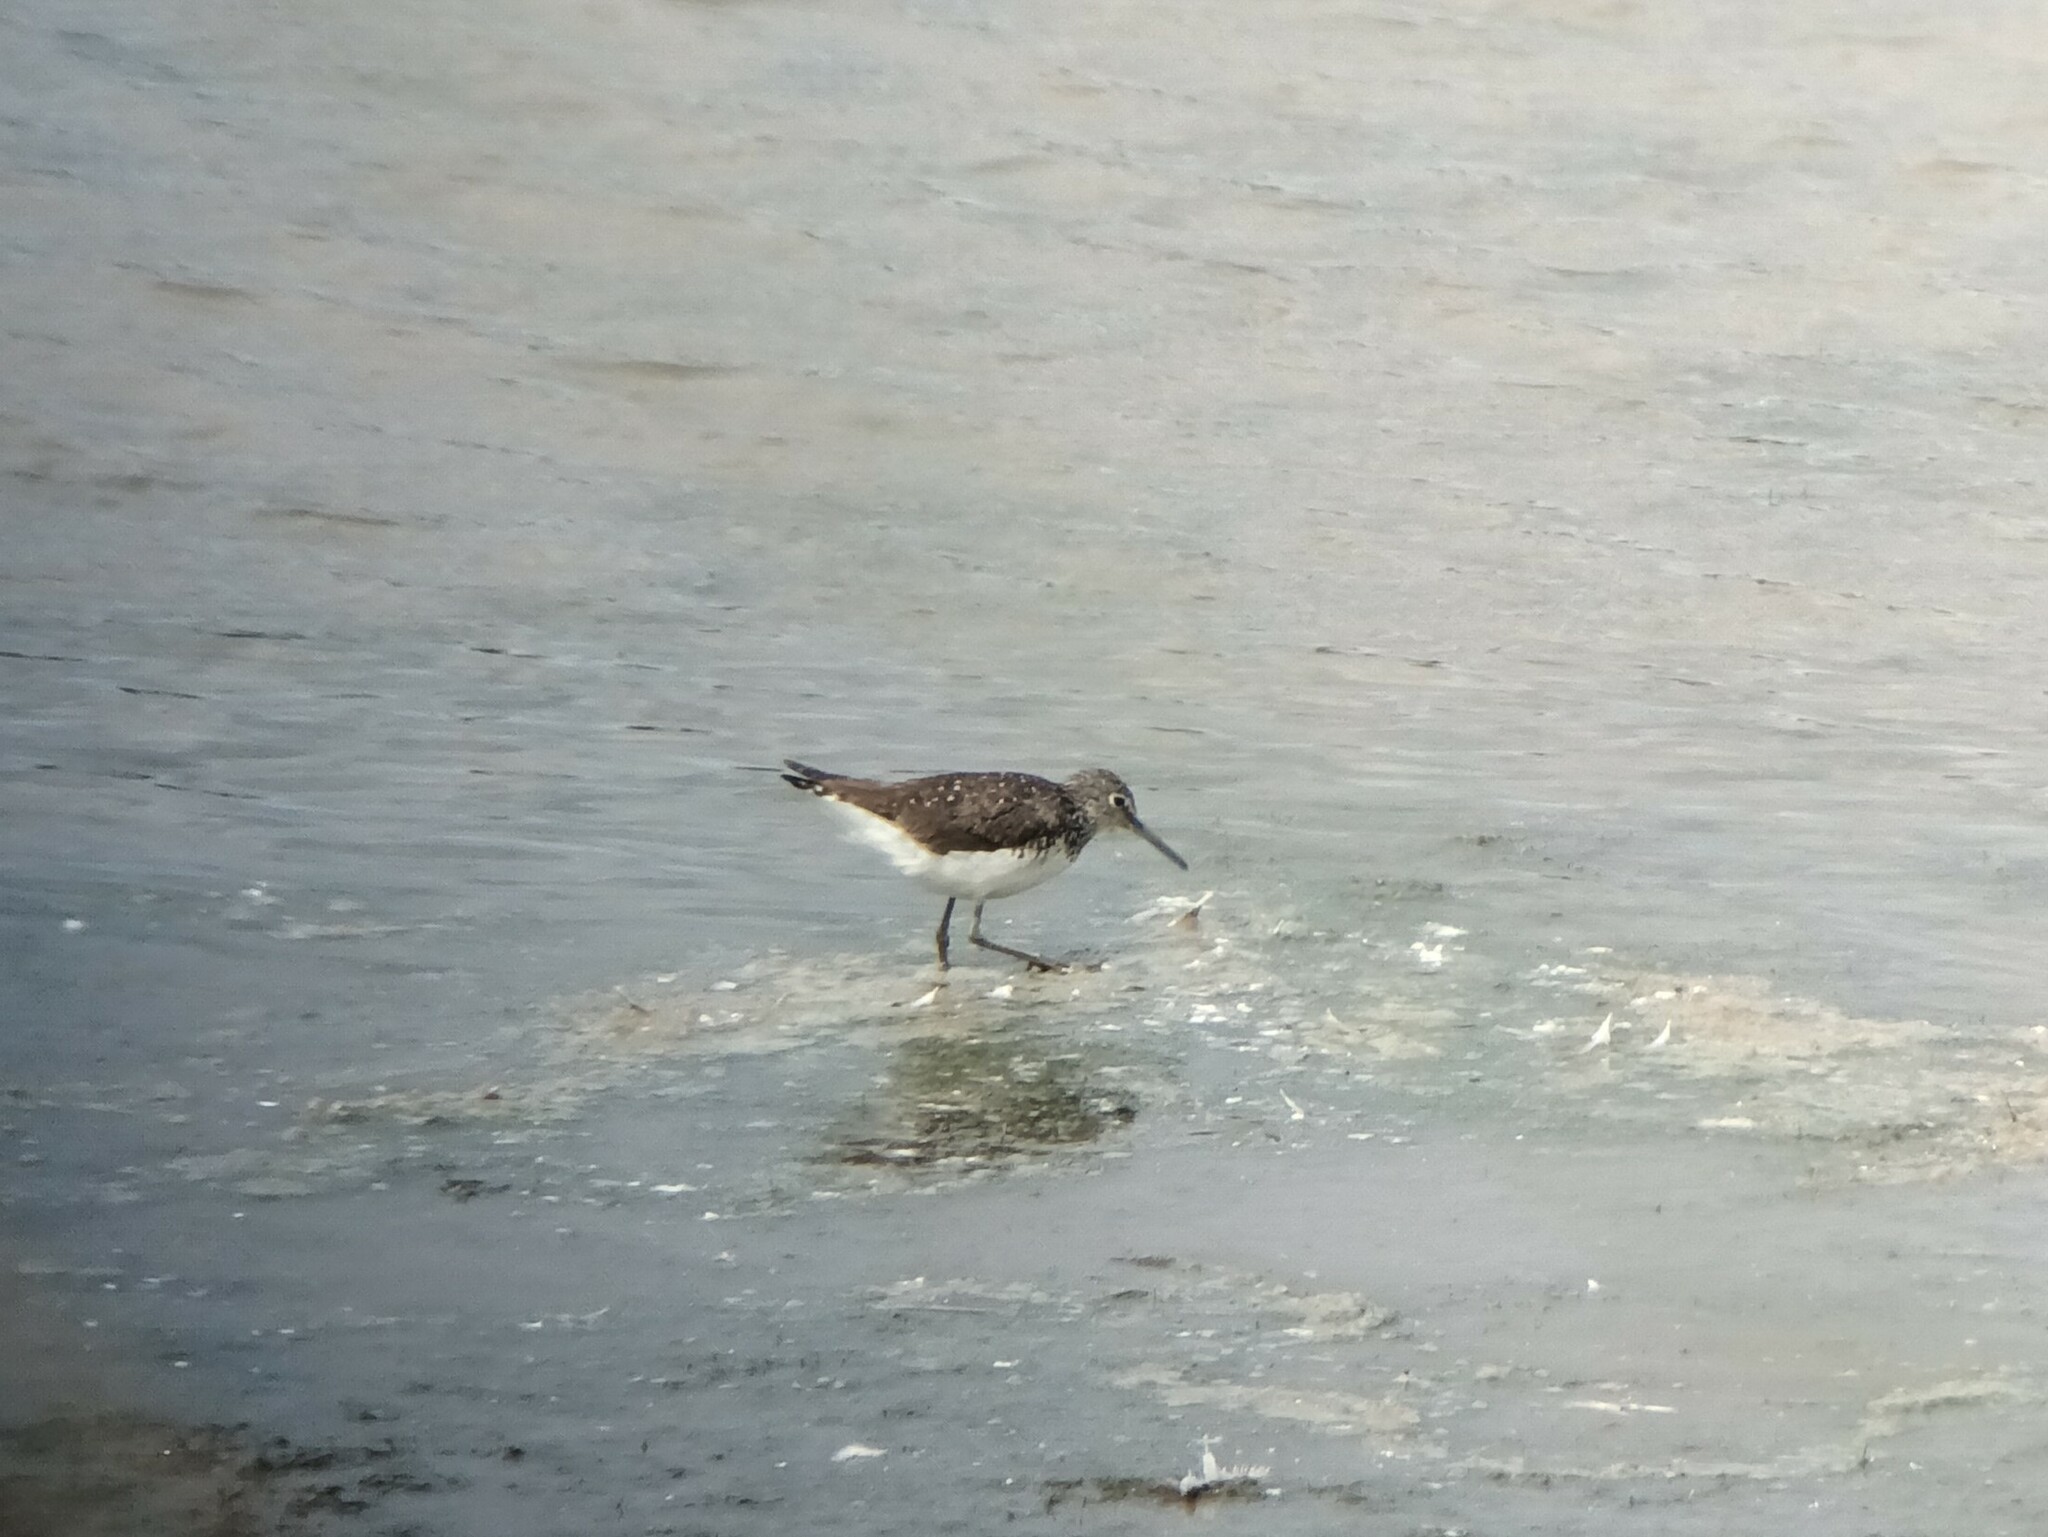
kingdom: Animalia
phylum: Chordata
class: Aves
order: Charadriiformes
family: Scolopacidae
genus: Tringa
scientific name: Tringa ochropus
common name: Green sandpiper
